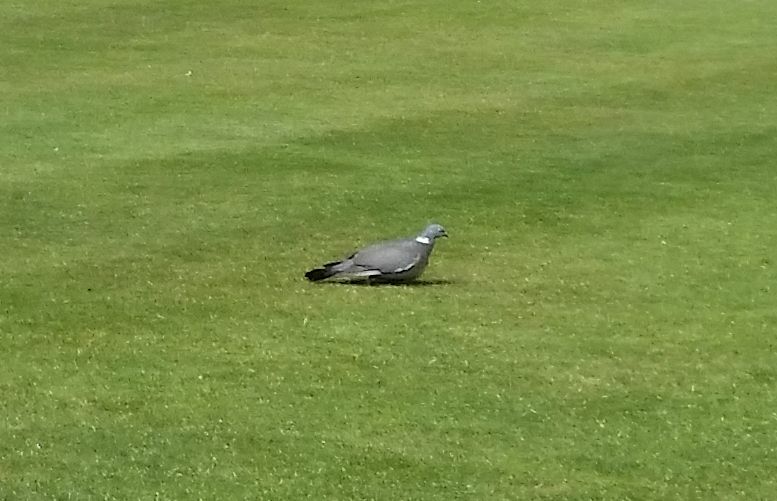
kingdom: Animalia
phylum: Chordata
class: Aves
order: Columbiformes
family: Columbidae
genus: Columba
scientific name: Columba palumbus
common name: Common wood pigeon
